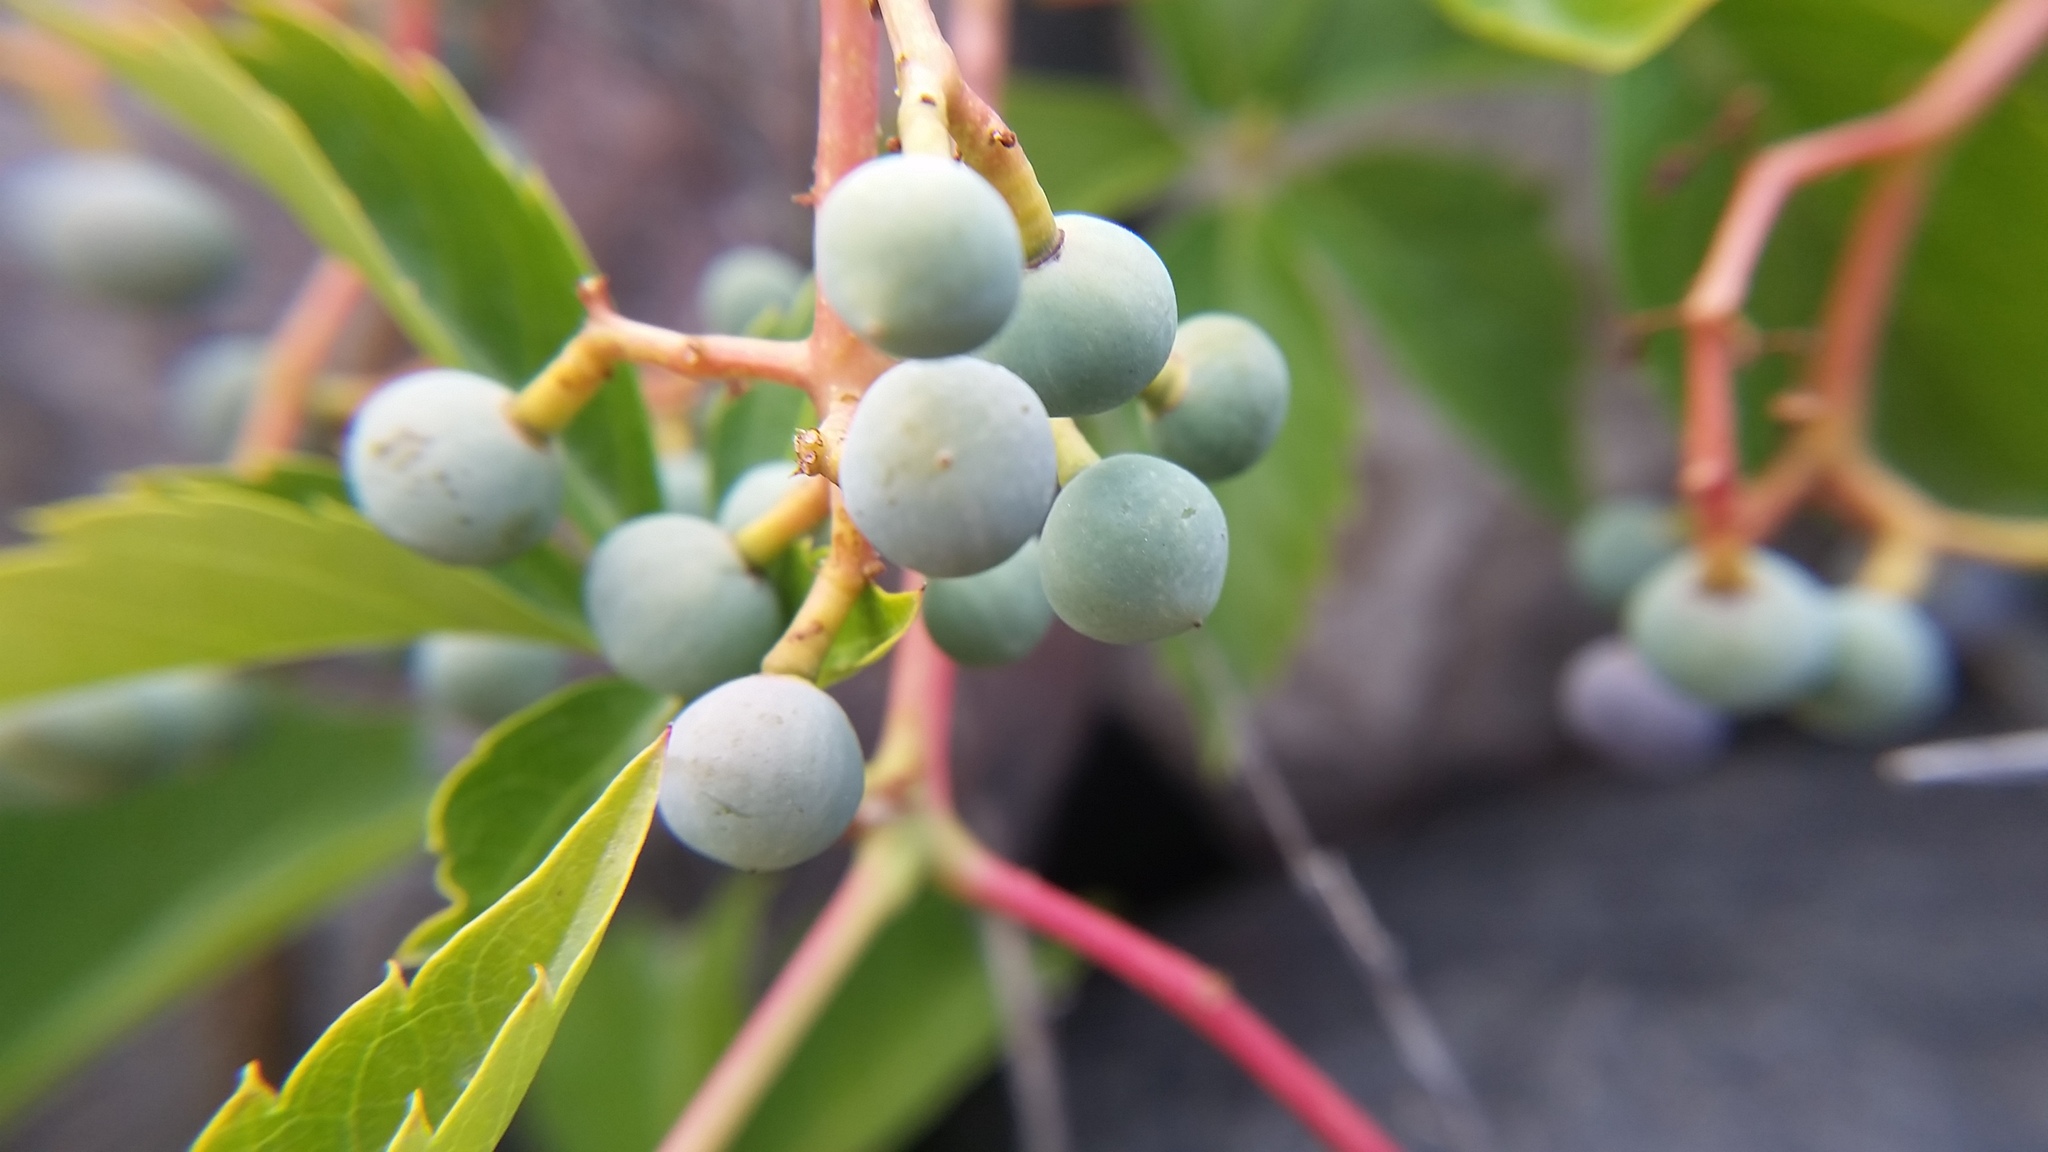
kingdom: Plantae
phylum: Tracheophyta
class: Magnoliopsida
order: Vitales
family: Vitaceae
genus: Parthenocissus
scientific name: Parthenocissus quinquefolia
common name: Virginia-creeper
